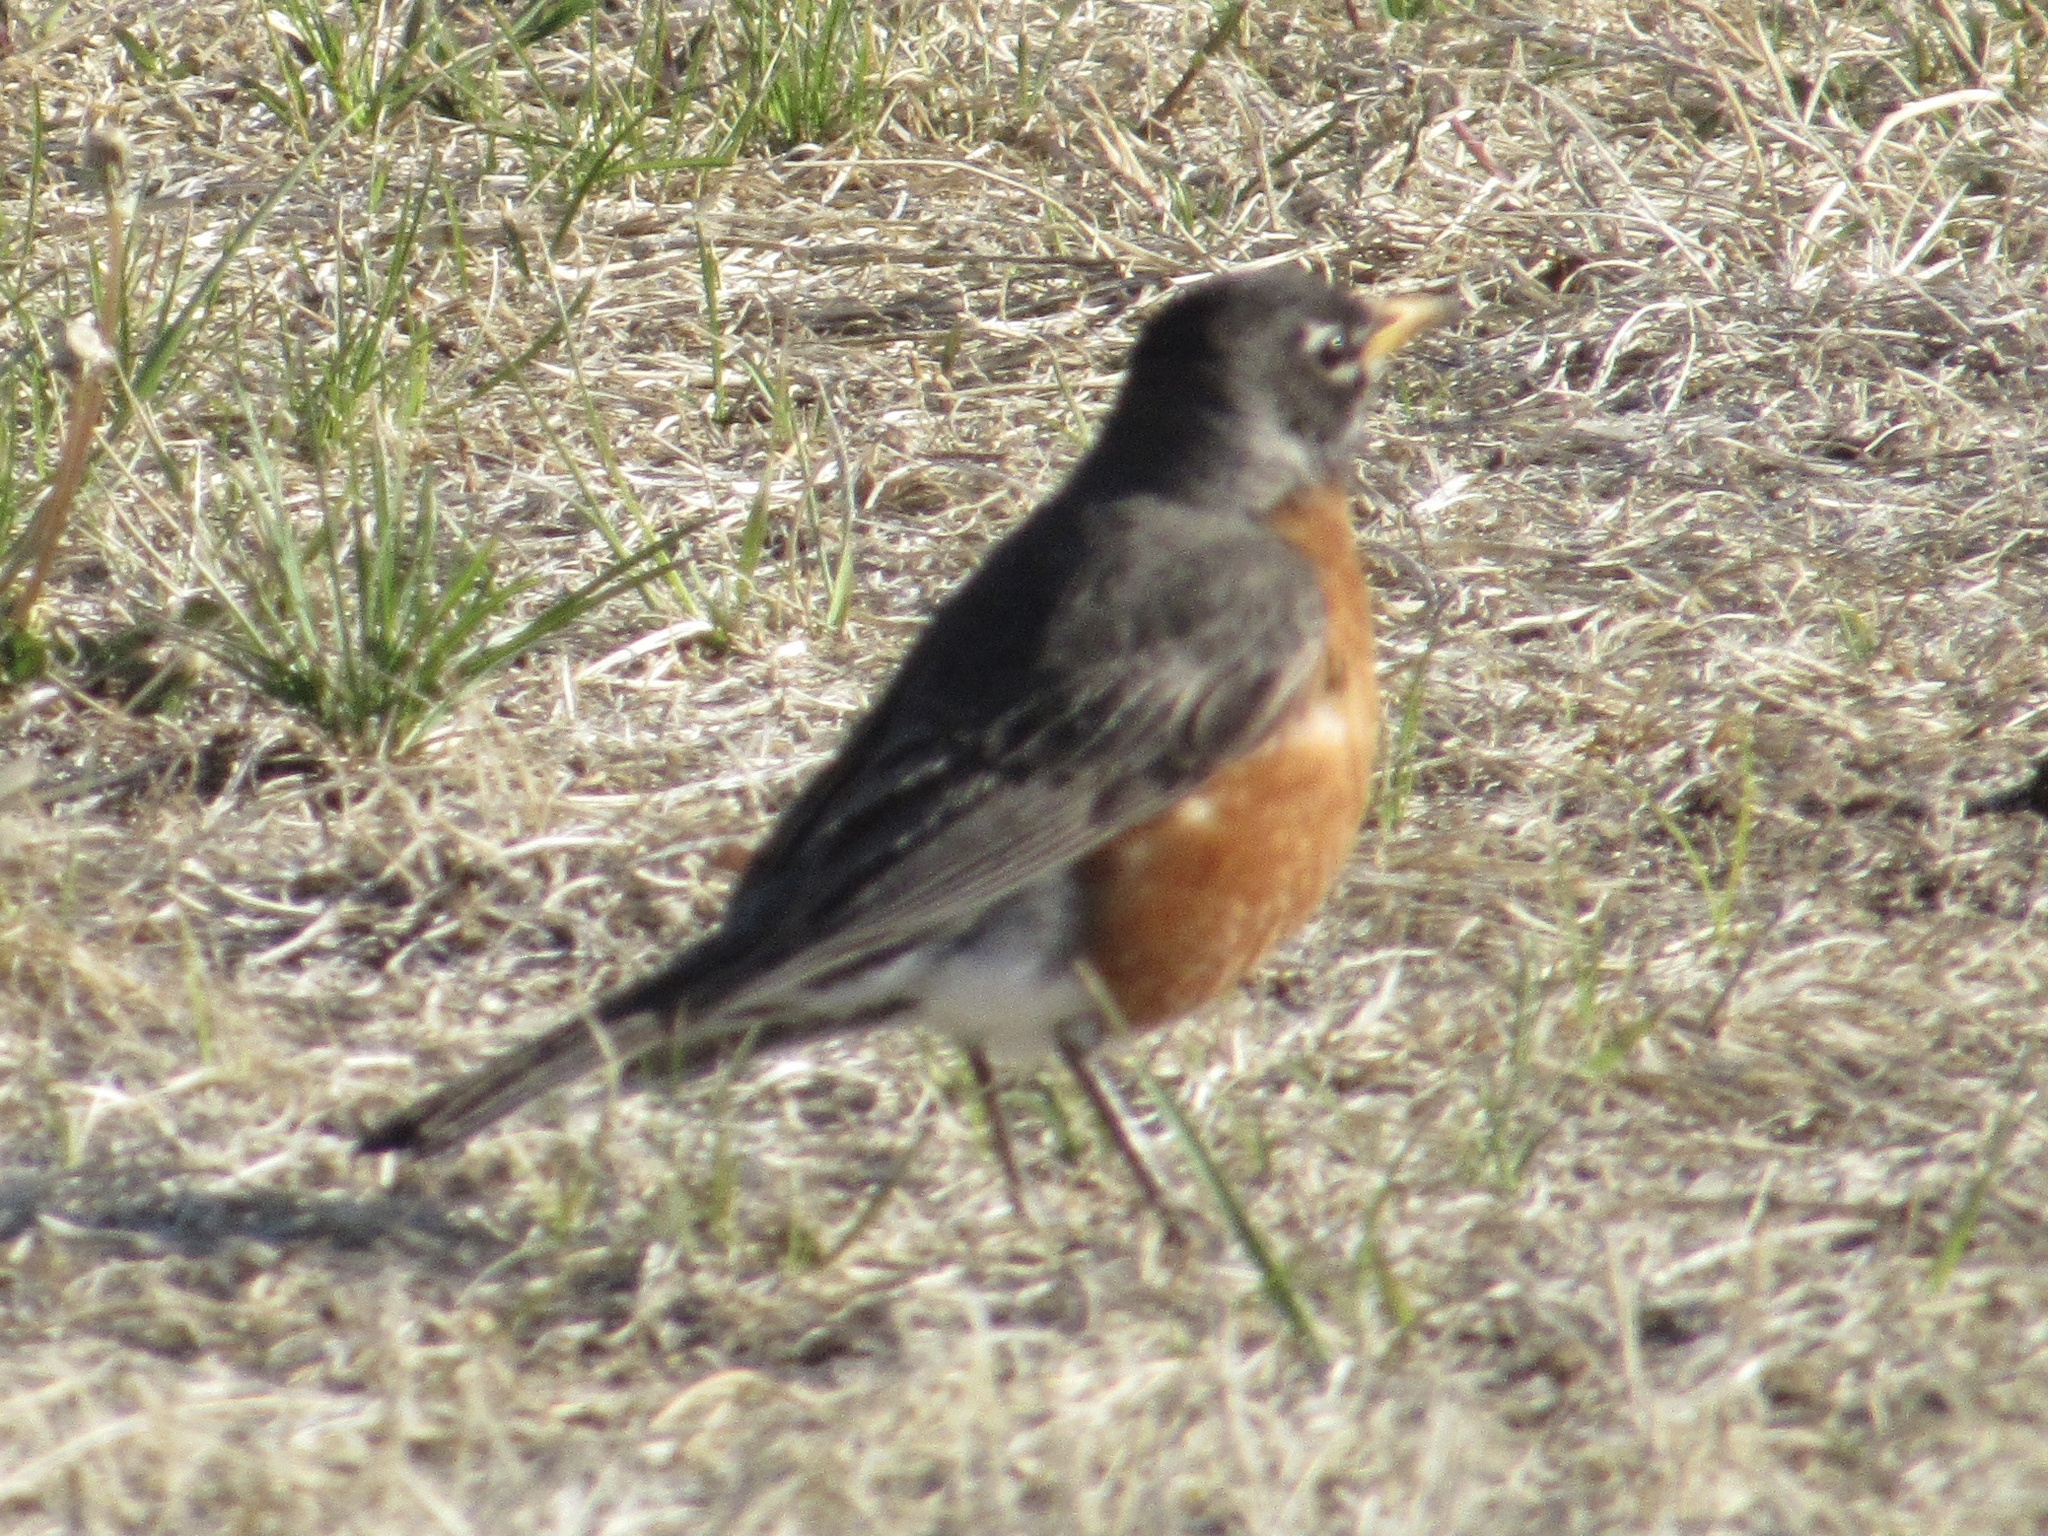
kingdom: Animalia
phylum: Chordata
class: Aves
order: Passeriformes
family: Turdidae
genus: Turdus
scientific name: Turdus migratorius
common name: American robin
